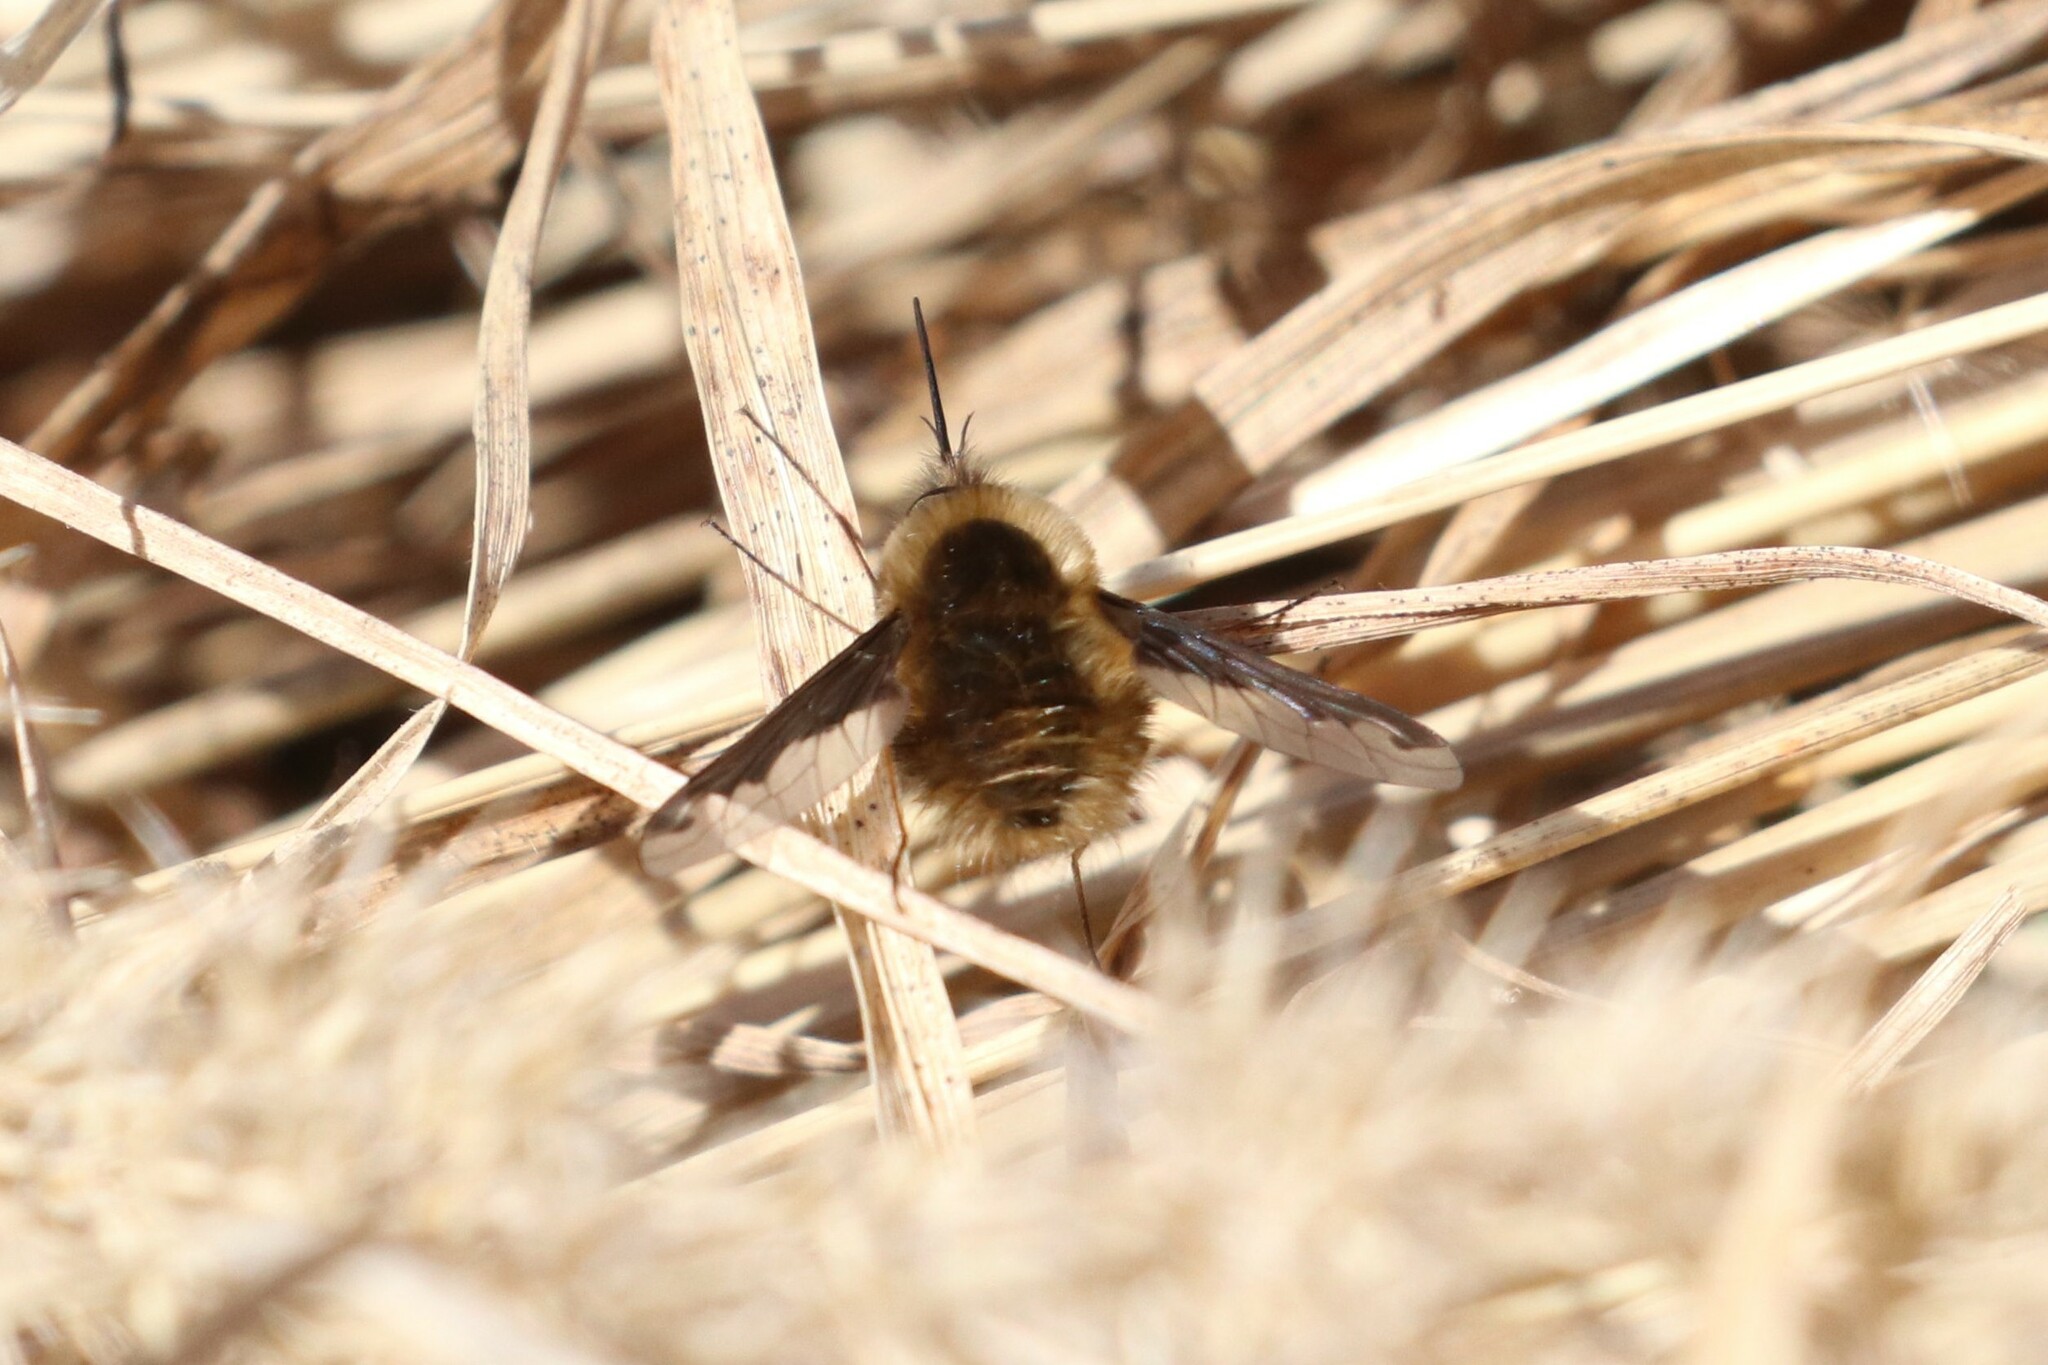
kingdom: Animalia
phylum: Arthropoda
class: Insecta
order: Diptera
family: Bombyliidae
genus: Bombylius
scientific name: Bombylius major
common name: Bee fly
